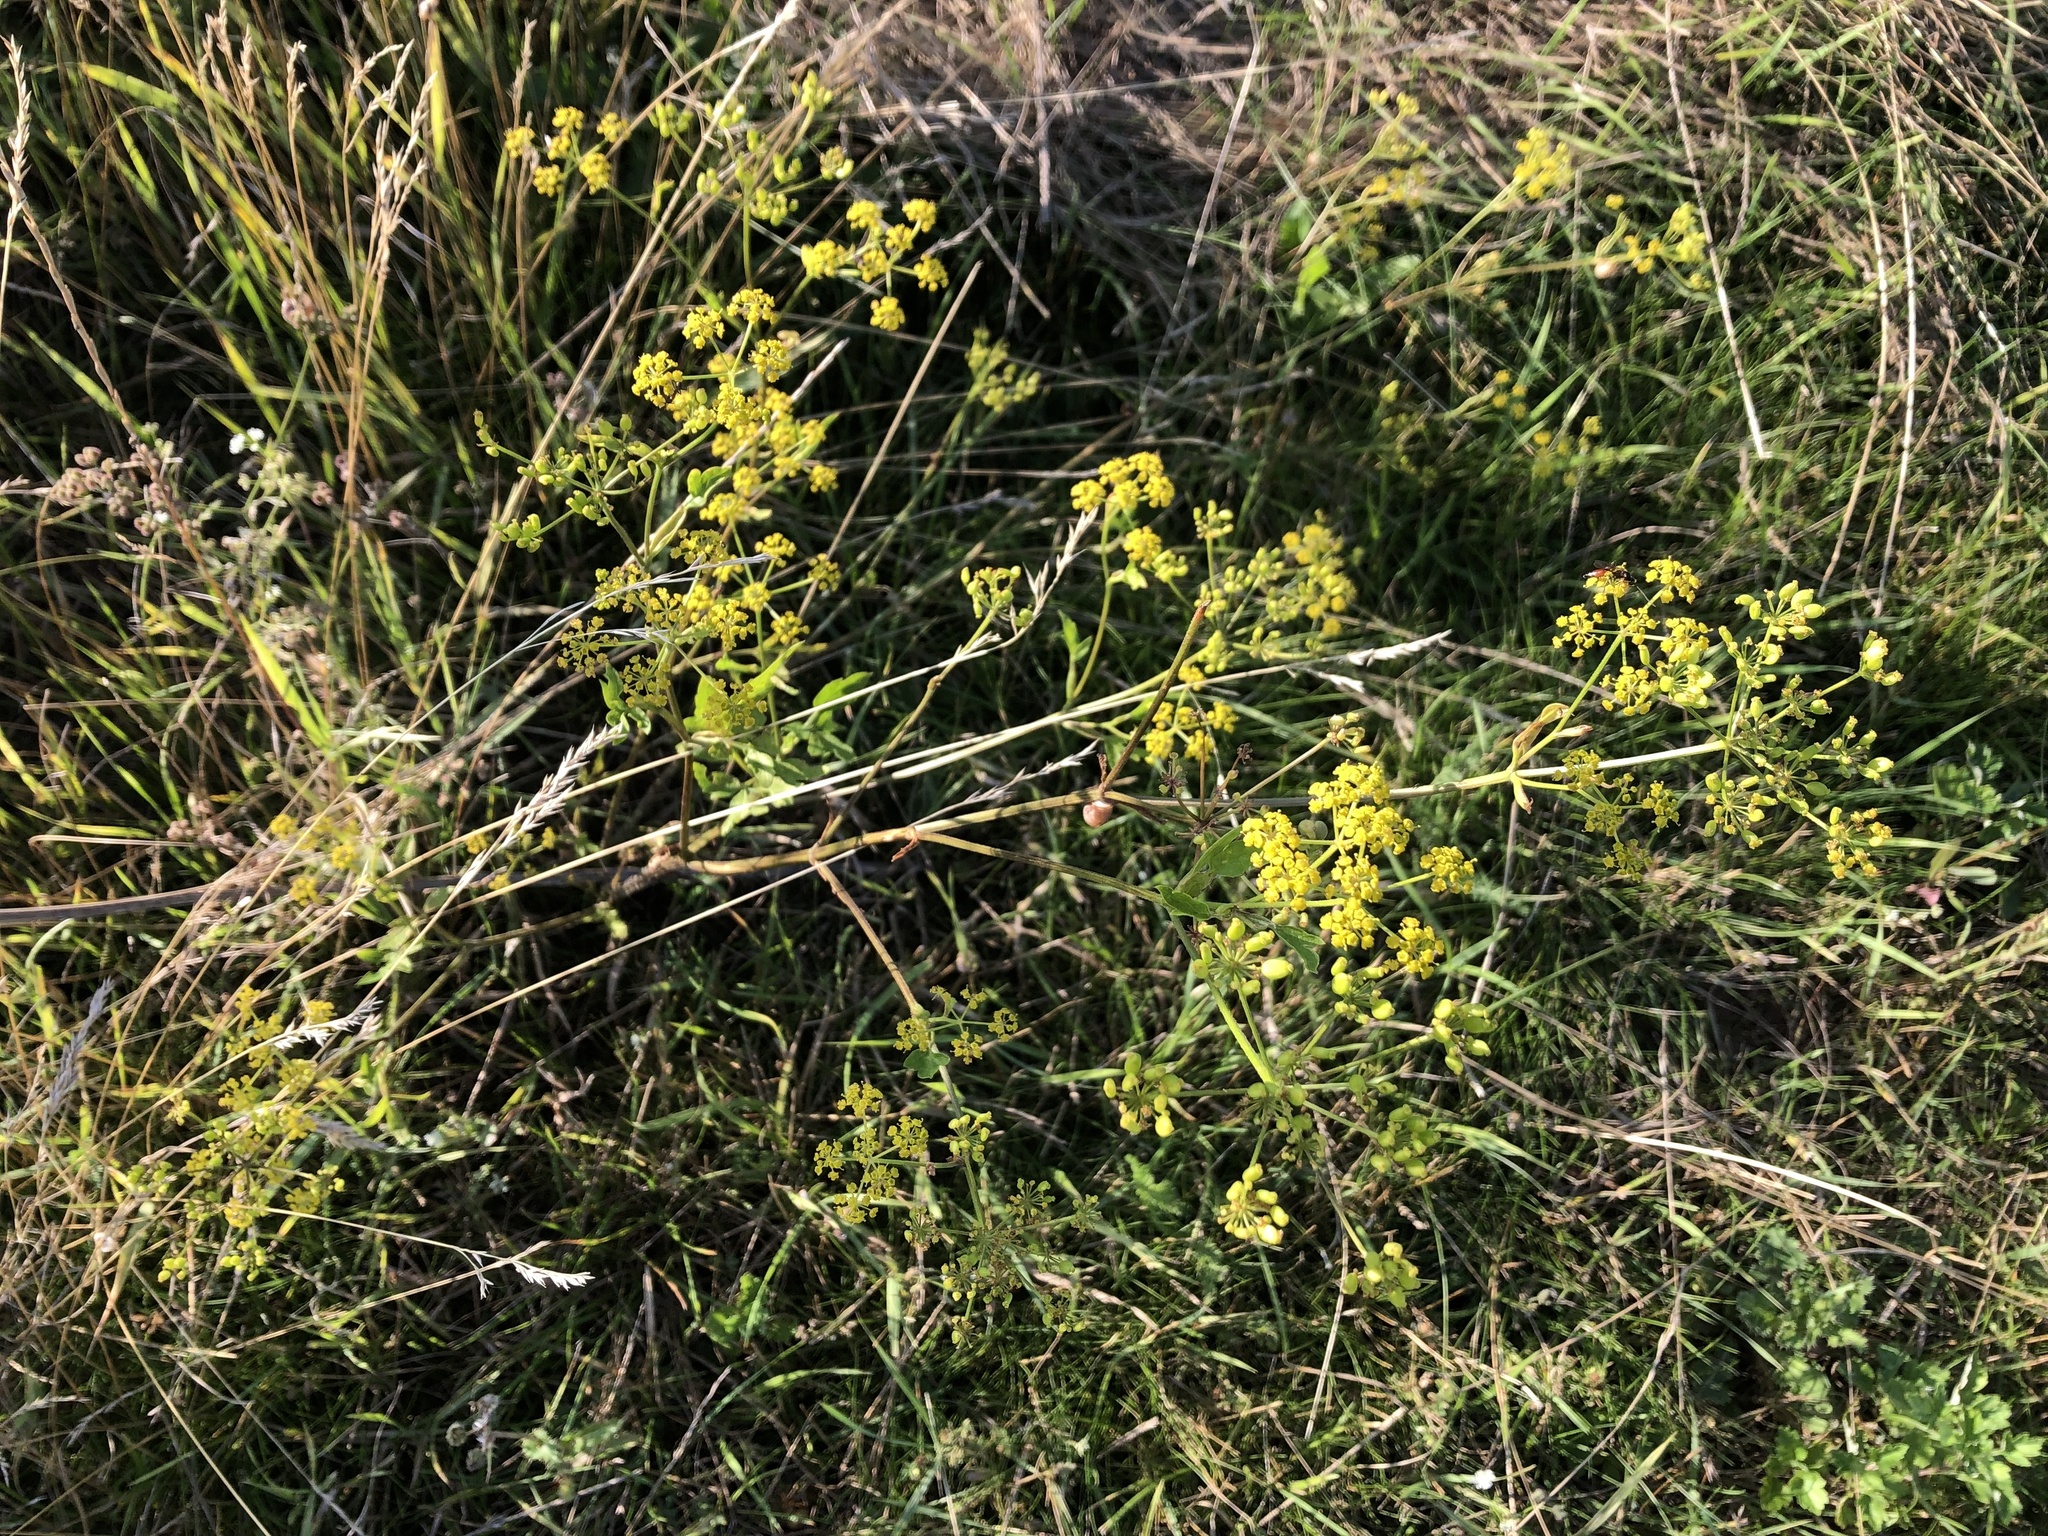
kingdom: Plantae
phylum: Tracheophyta
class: Magnoliopsida
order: Apiales
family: Apiaceae
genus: Pastinaca
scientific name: Pastinaca sativa
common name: Wild parsnip
